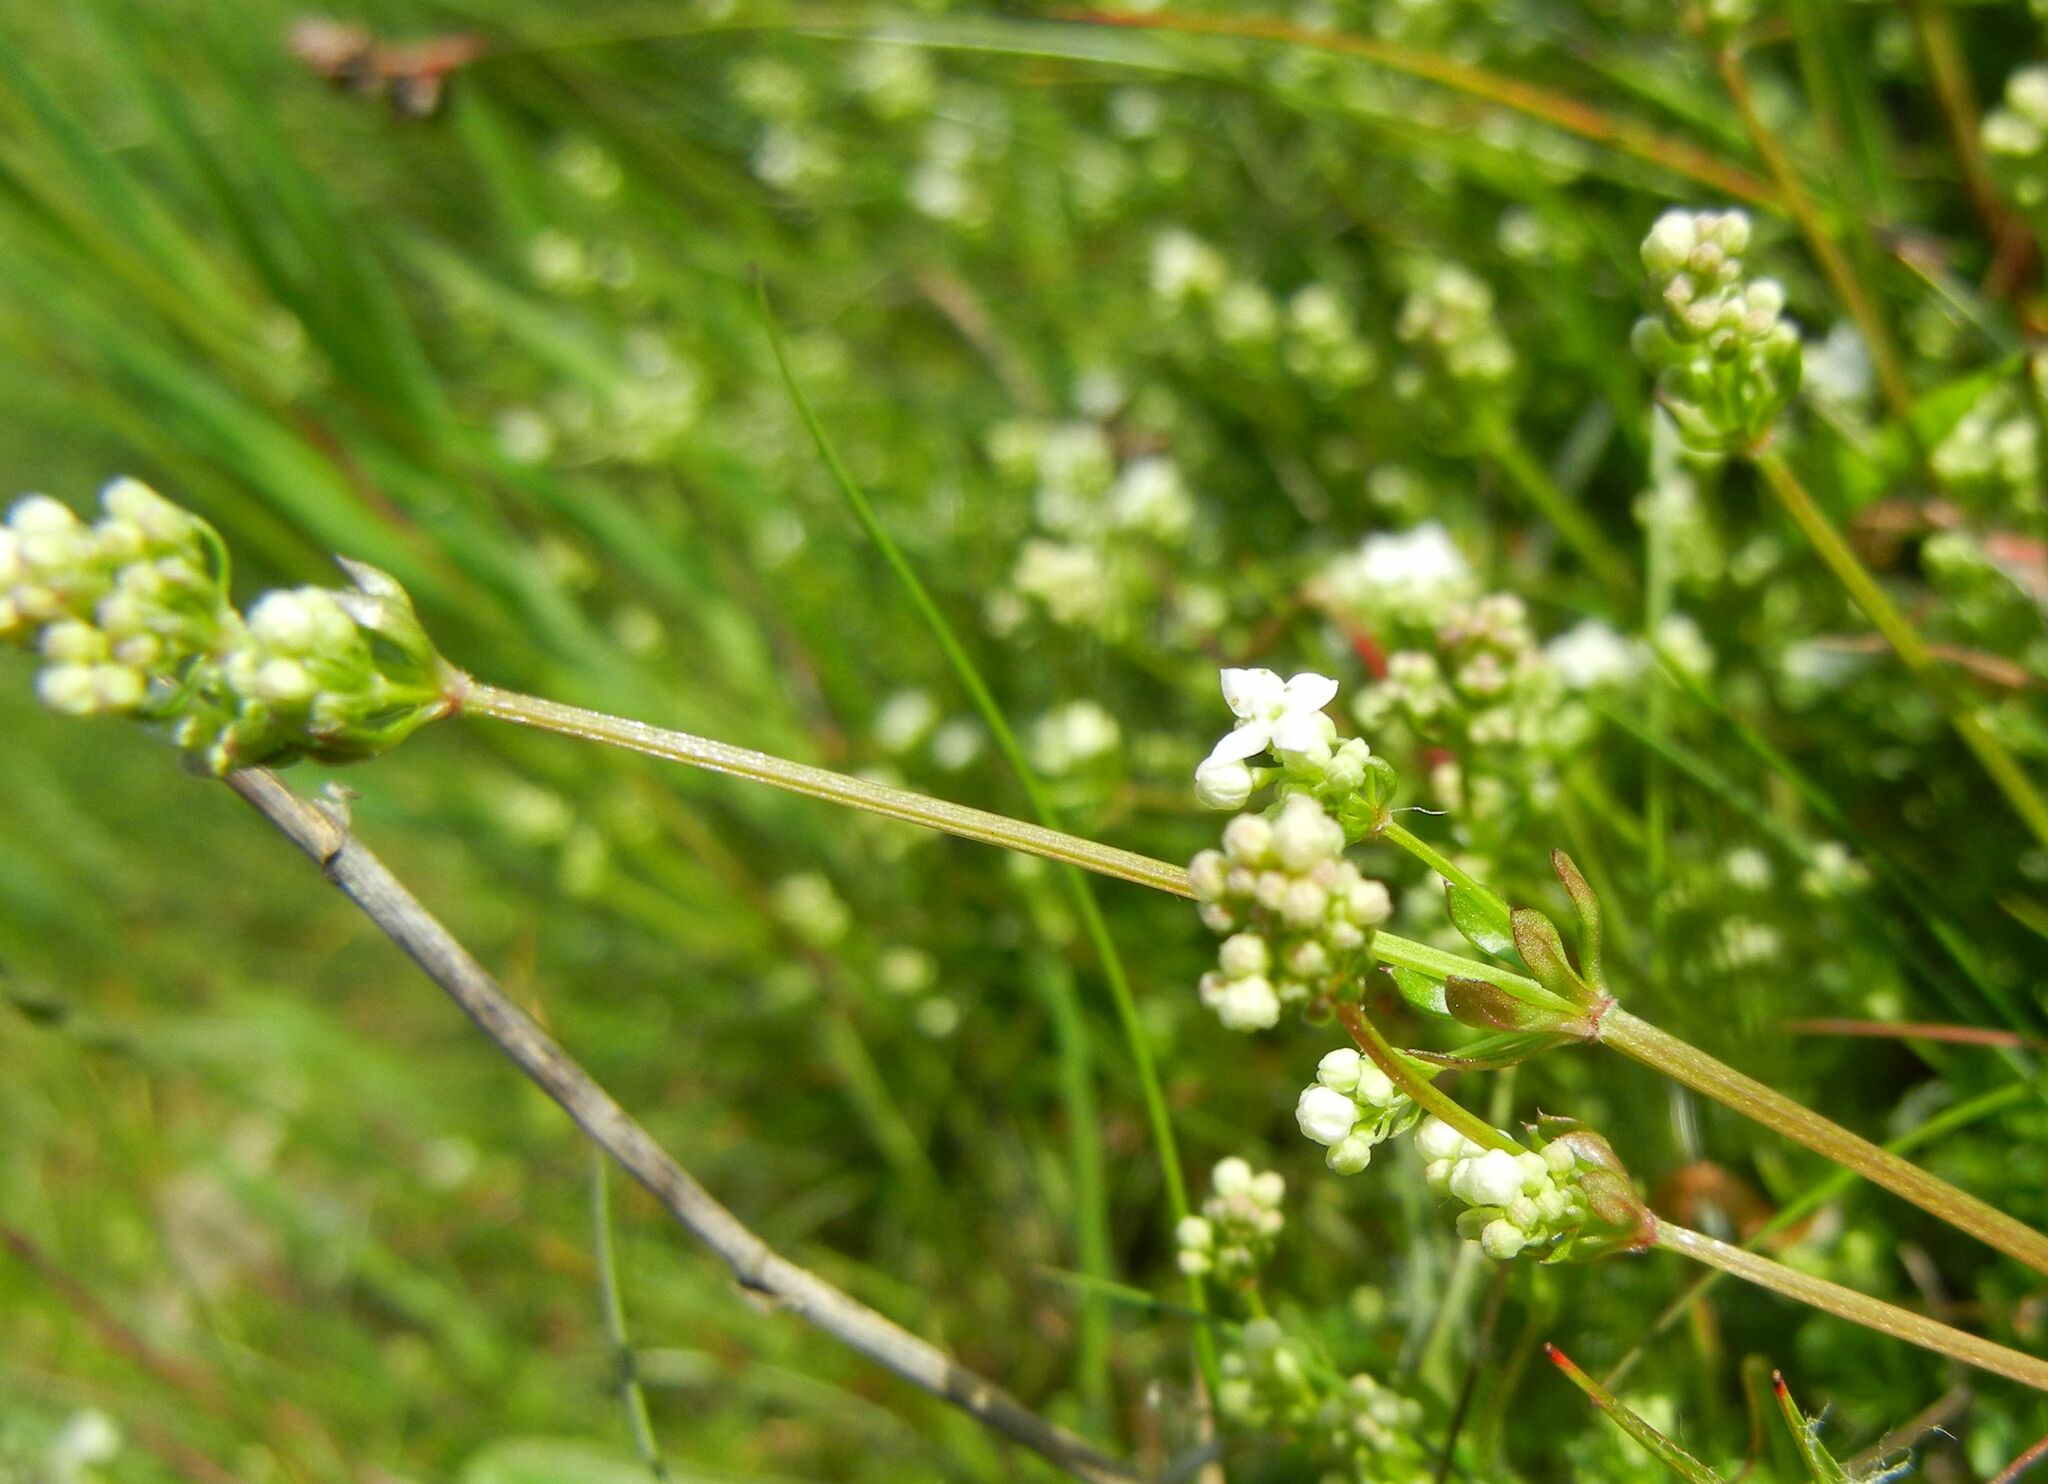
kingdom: Plantae
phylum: Tracheophyta
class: Magnoliopsida
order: Gentianales
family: Rubiaceae
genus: Galium
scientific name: Galium saxatile
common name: Heath bedstraw
